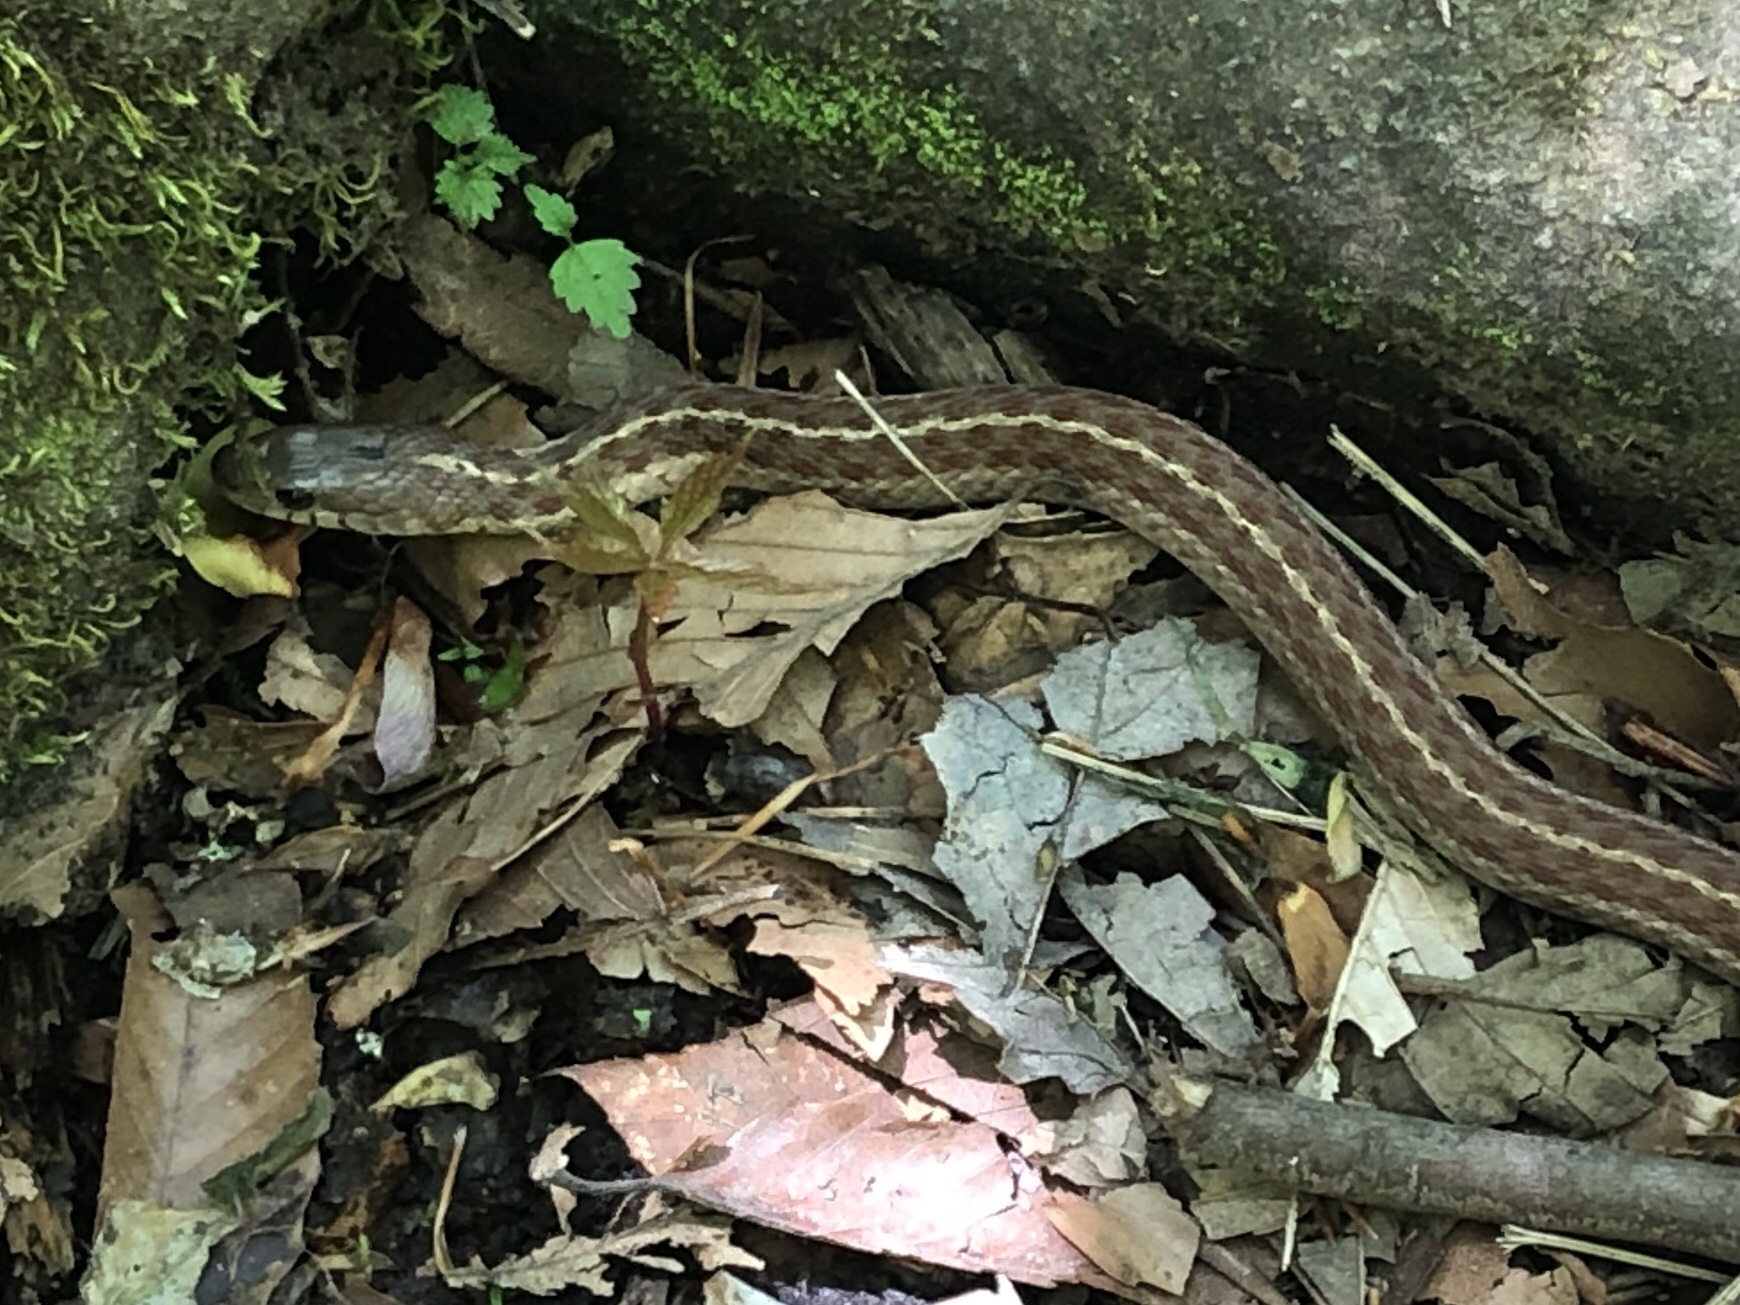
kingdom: Animalia
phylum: Chordata
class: Squamata
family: Colubridae
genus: Thamnophis
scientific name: Thamnophis sirtalis
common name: Common garter snake
